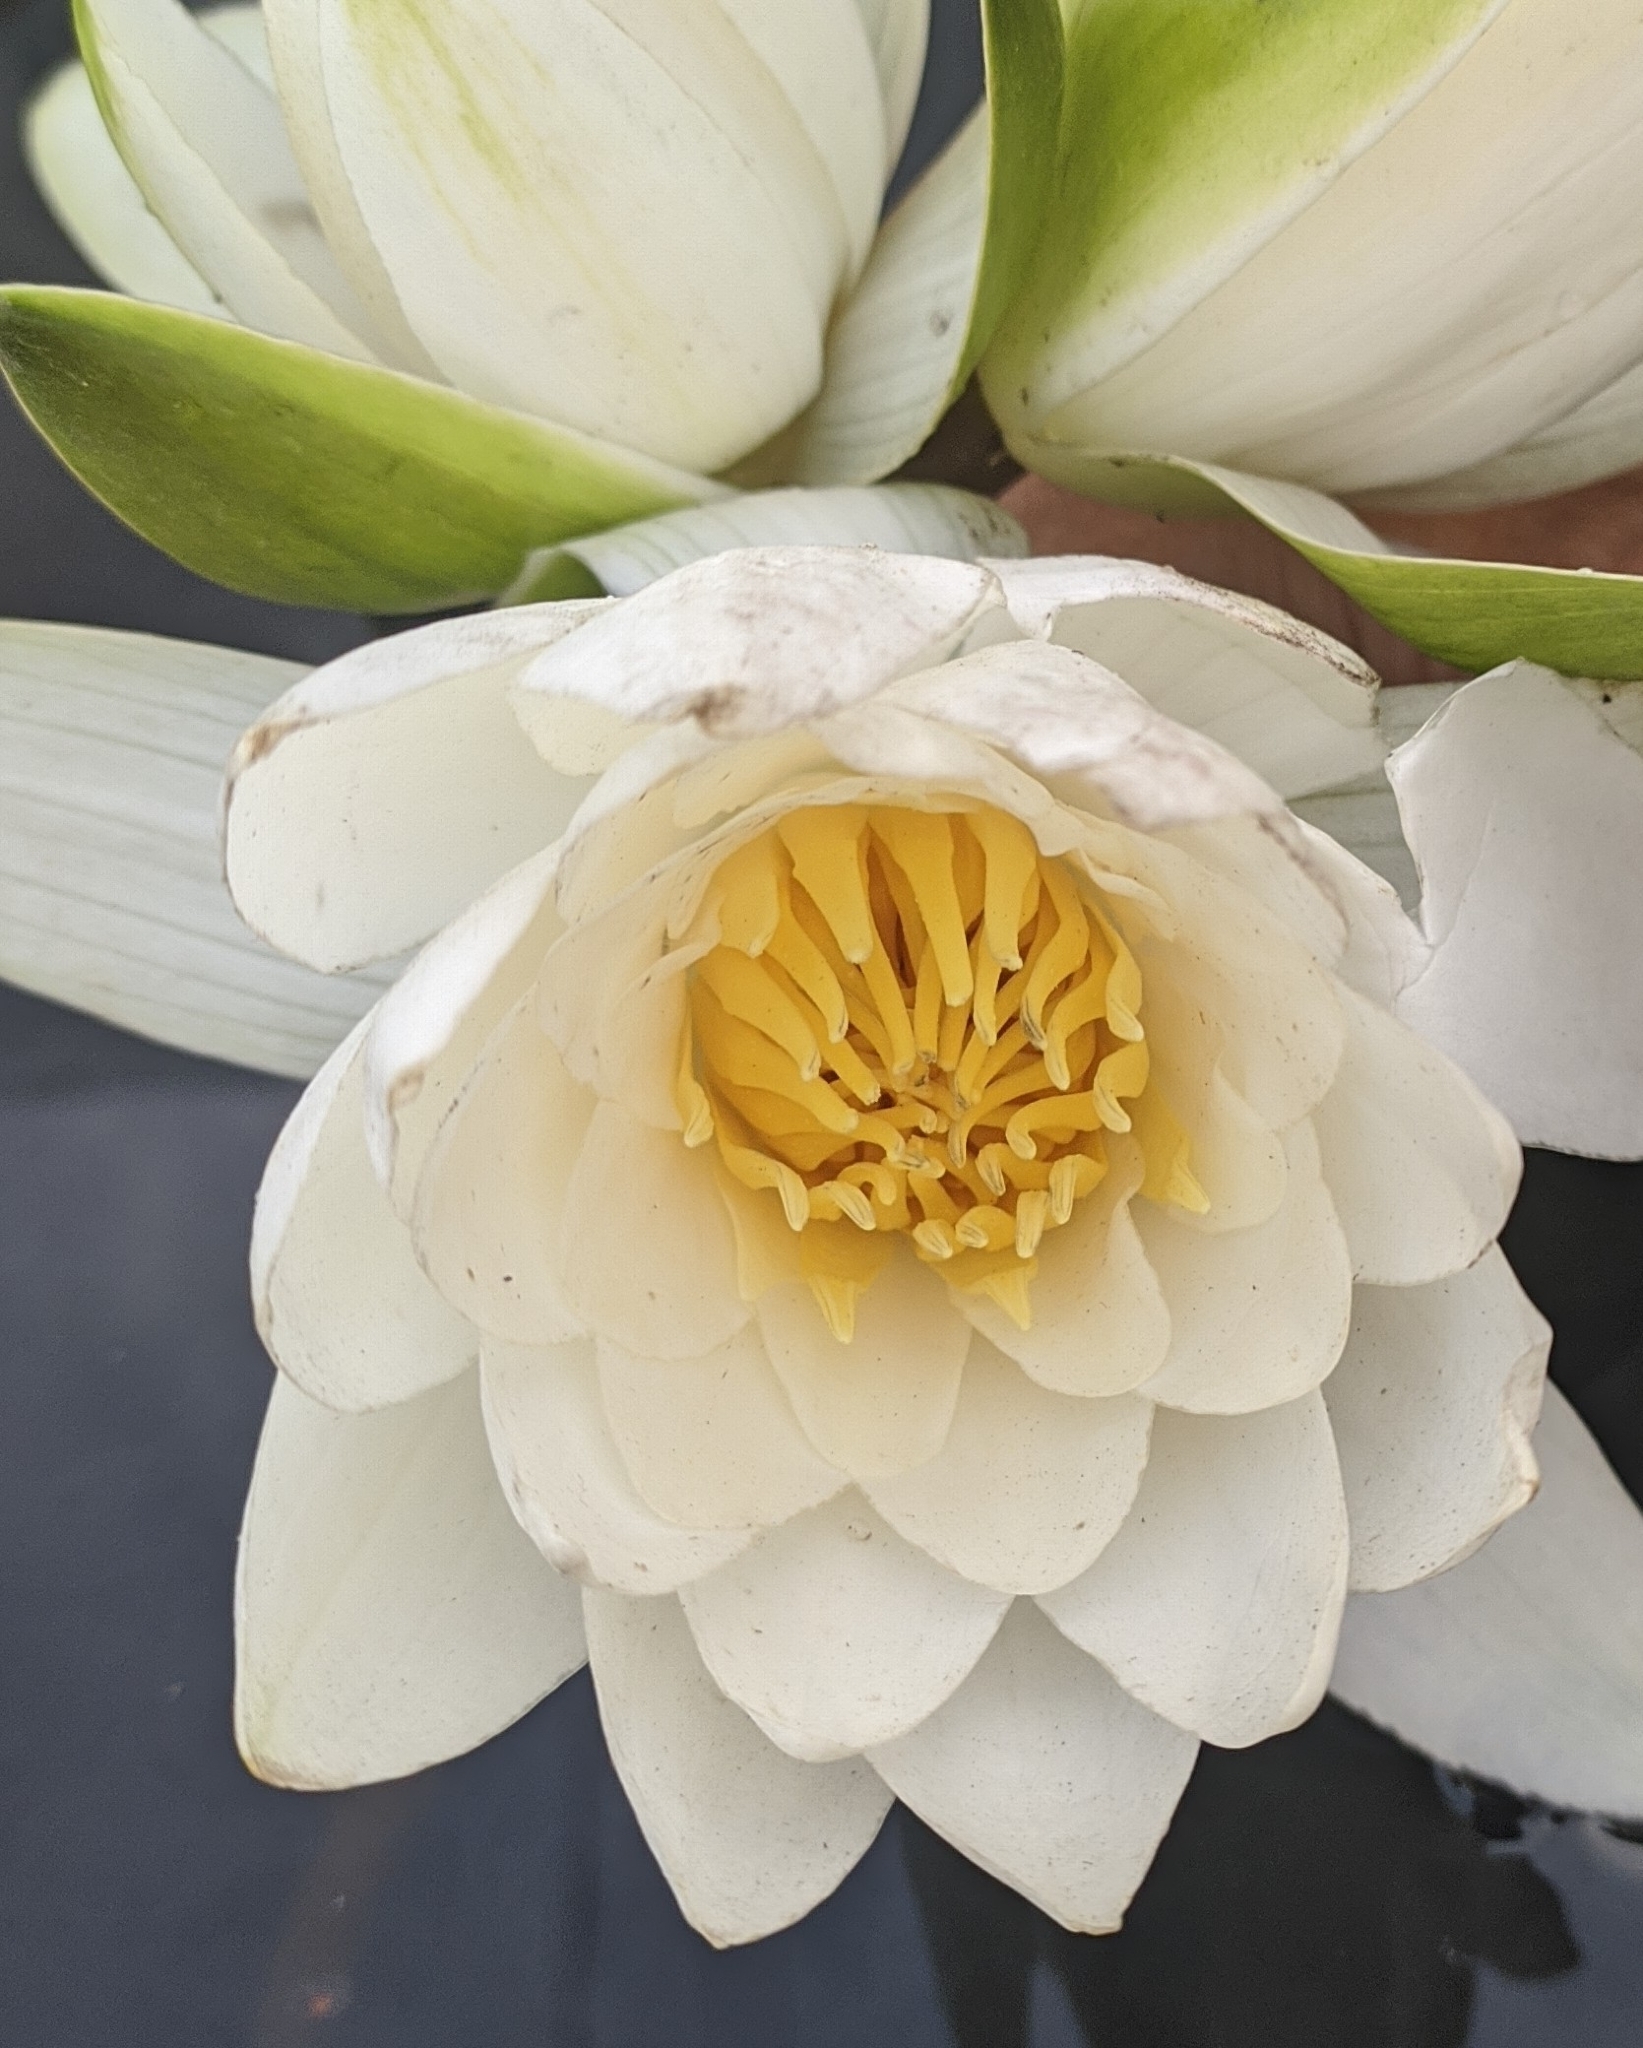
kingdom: Plantae
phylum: Tracheophyta
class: Magnoliopsida
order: Nymphaeales
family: Nymphaeaceae
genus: Nymphaea
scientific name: Nymphaea candida
